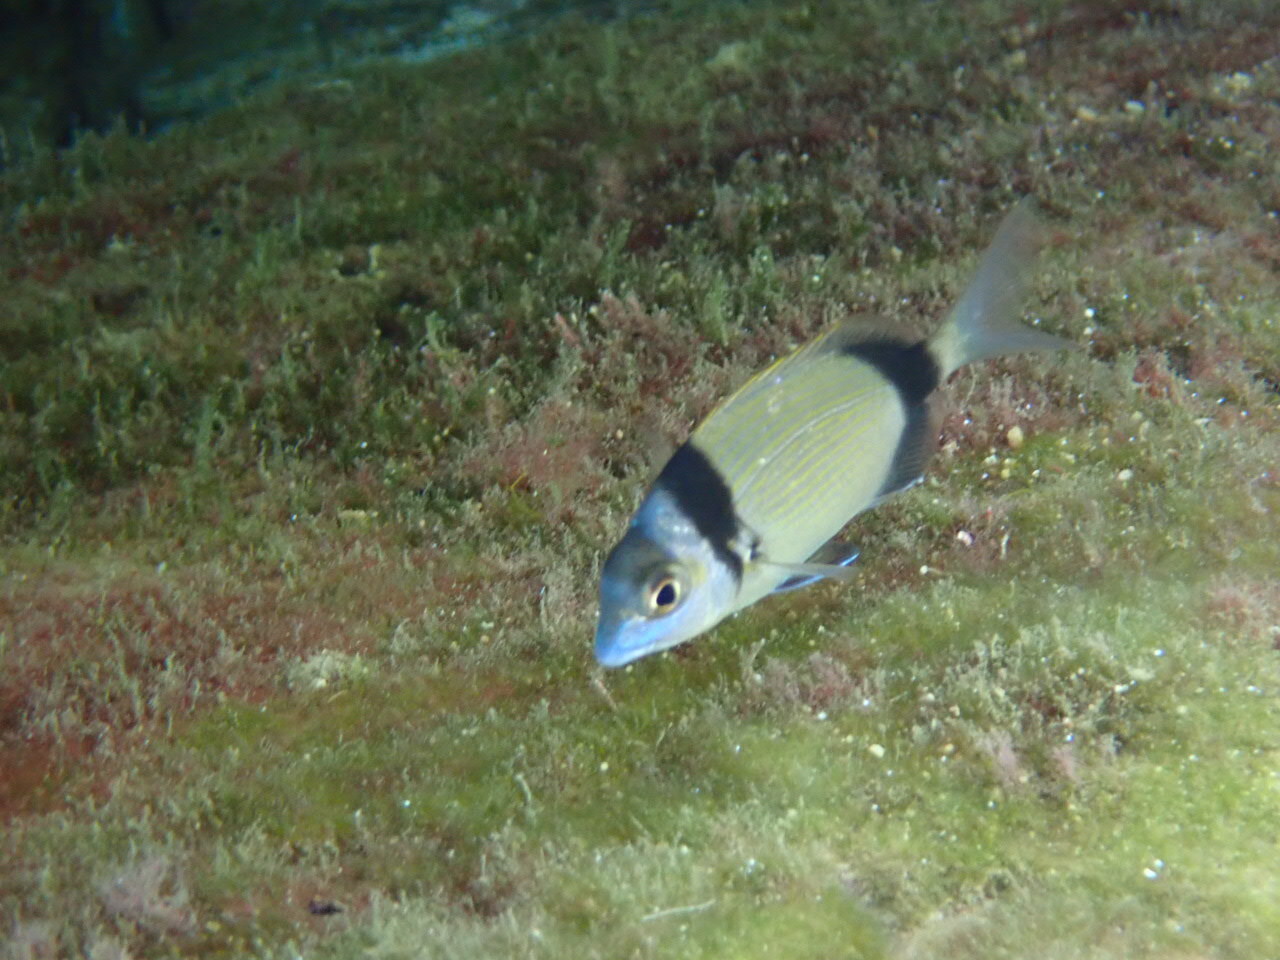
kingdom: Animalia
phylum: Chordata
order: Perciformes
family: Sparidae
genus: Diplodus
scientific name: Diplodus vulgaris
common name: Common two-banded seabream
